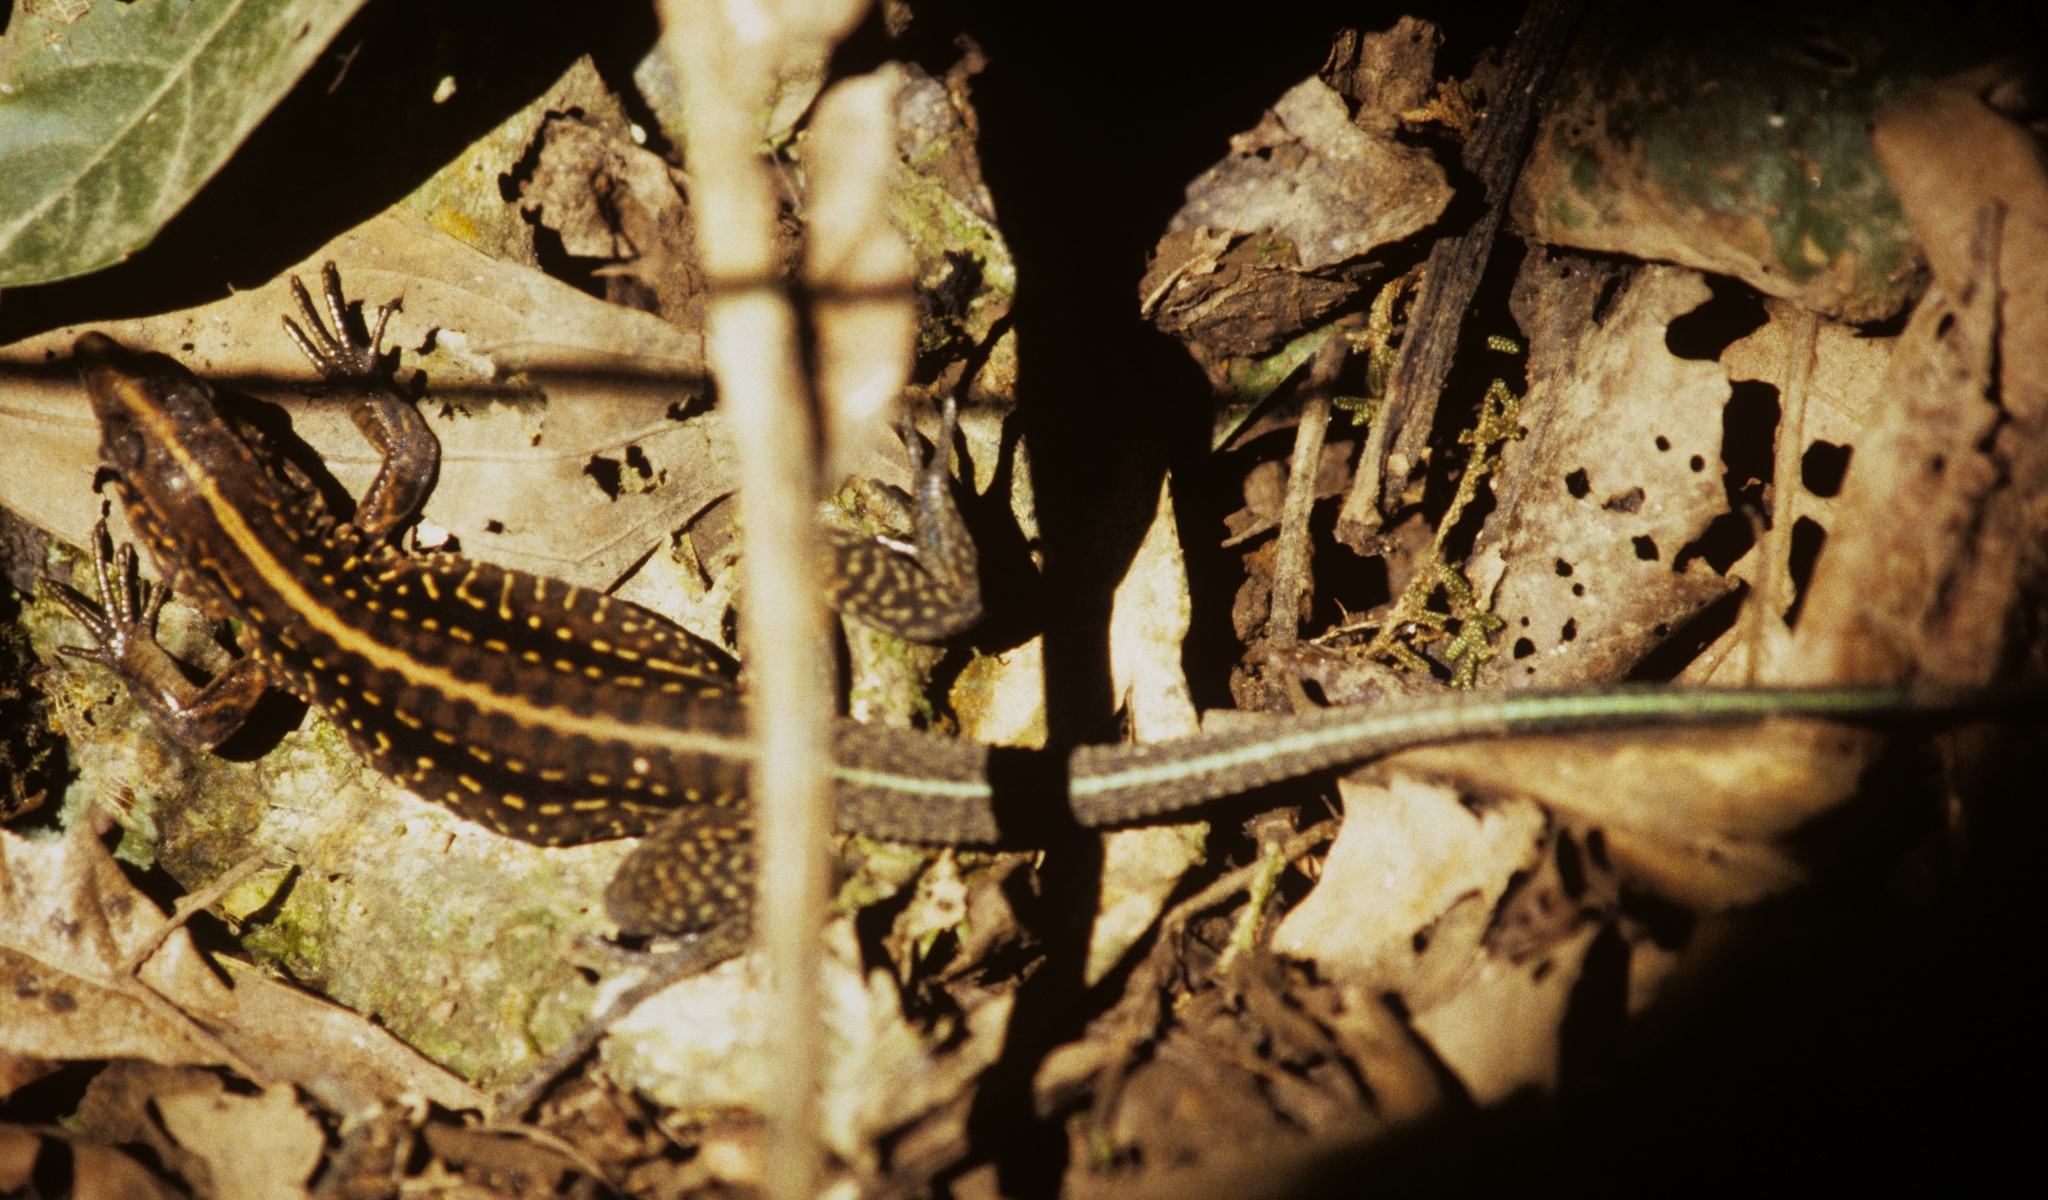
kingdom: Animalia
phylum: Chordata
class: Squamata
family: Teiidae
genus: Holcosus
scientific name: Holcosus festivus
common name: Middle american ameiva
